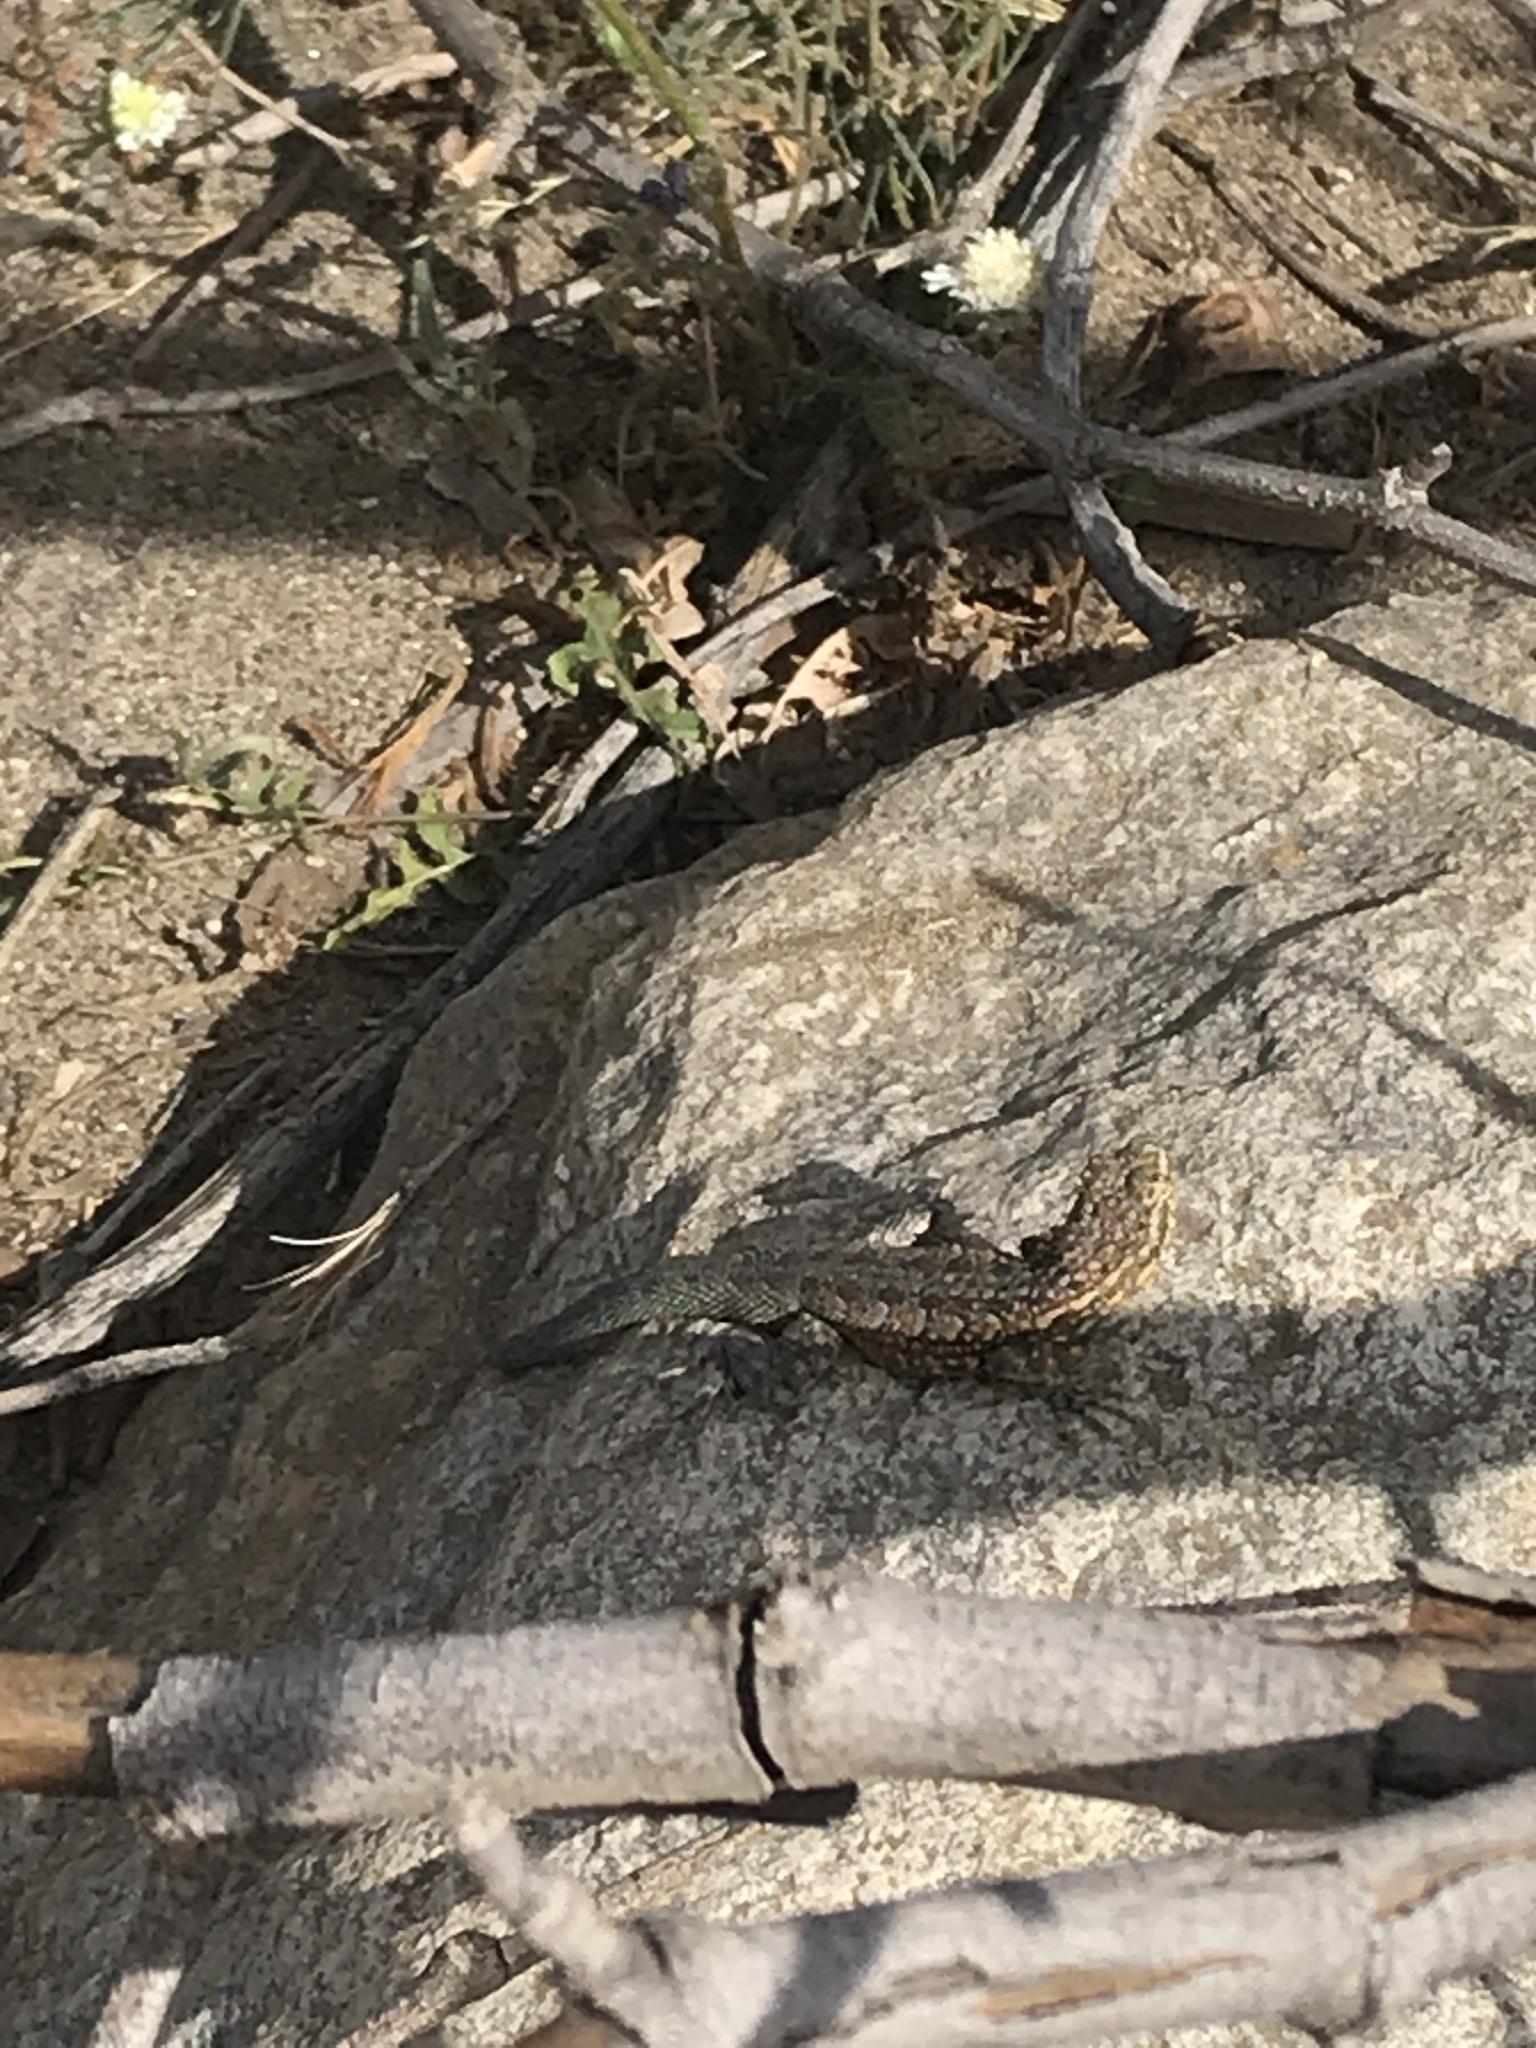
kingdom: Animalia
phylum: Chordata
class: Squamata
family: Phrynosomatidae
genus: Uta
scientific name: Uta stansburiana
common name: Side-blotched lizard
